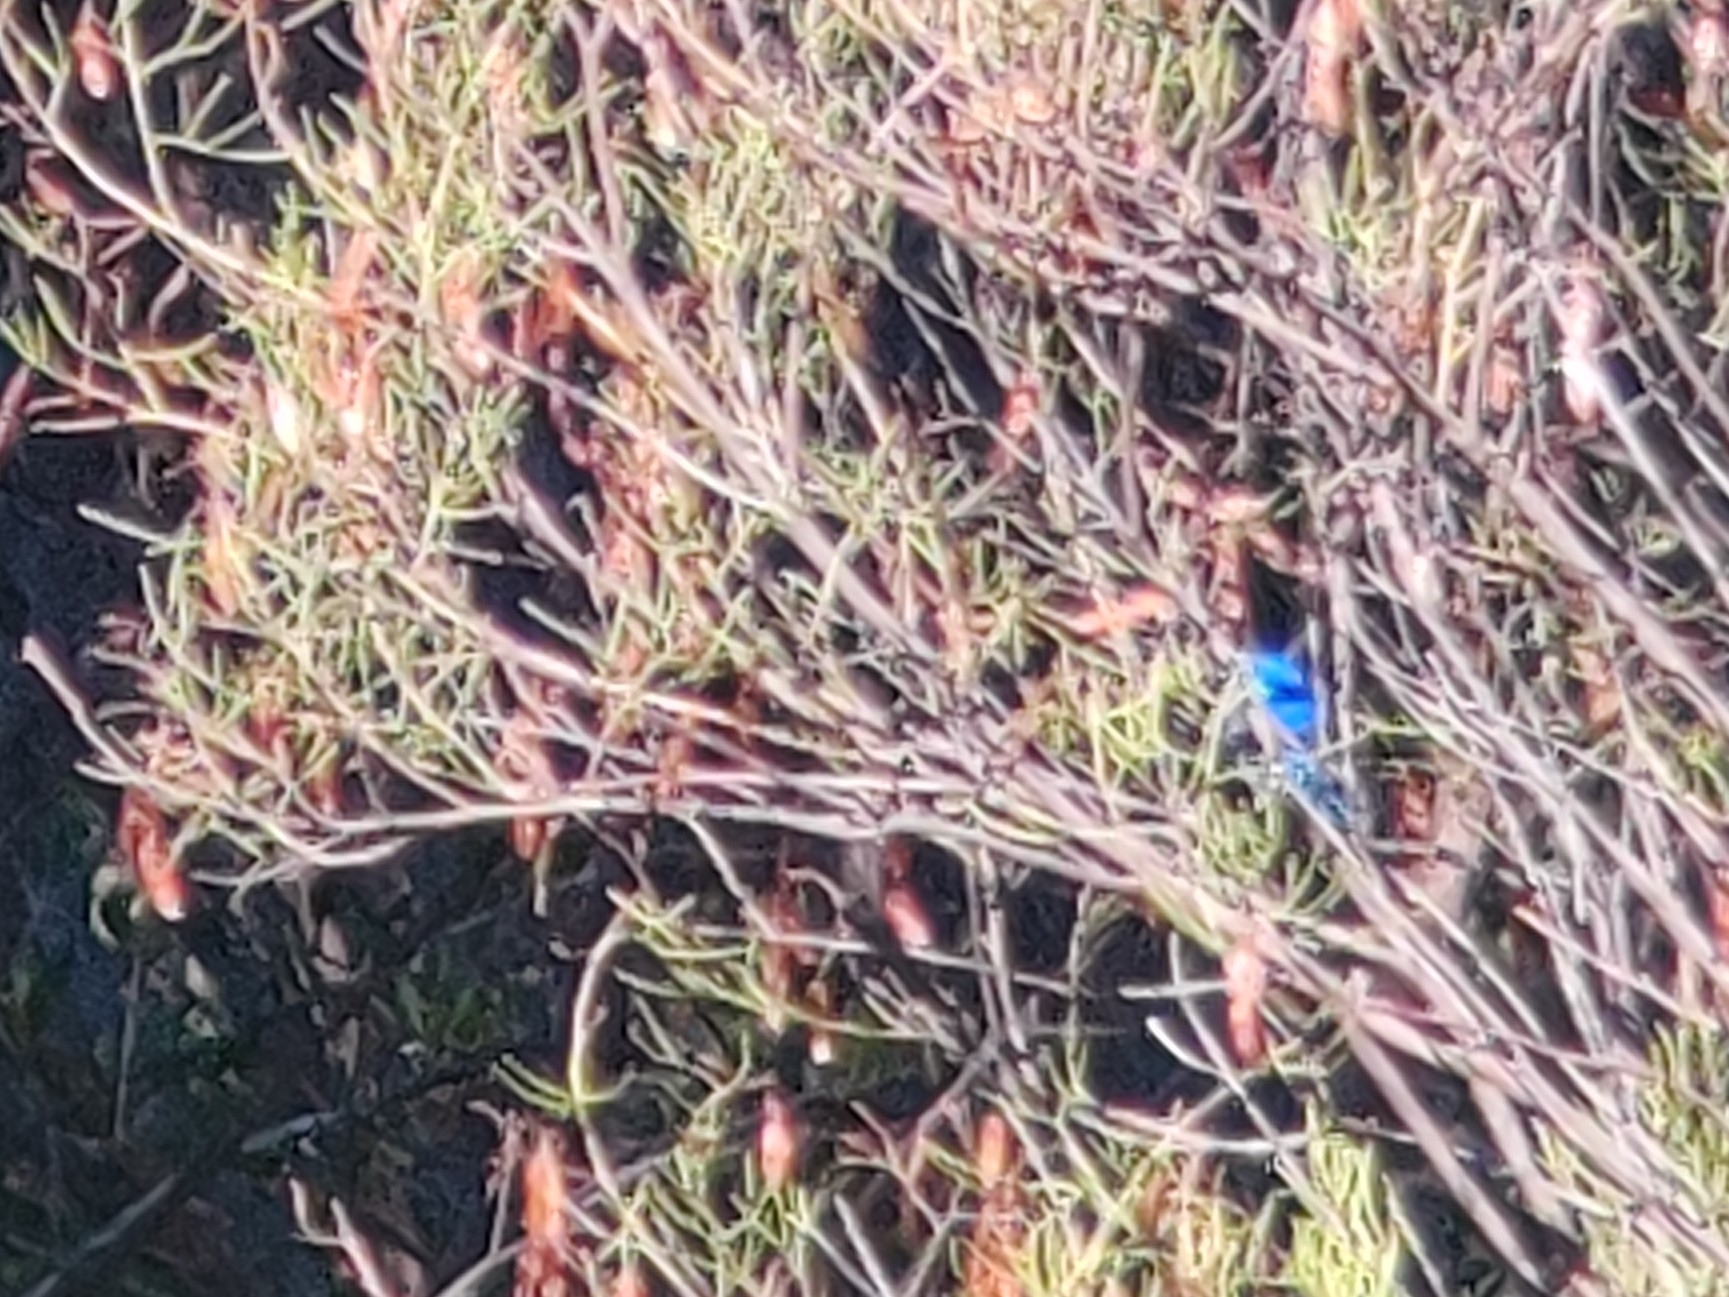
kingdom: Animalia
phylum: Chordata
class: Aves
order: Passeriformes
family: Maluridae
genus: Malurus
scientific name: Malurus splendens
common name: Splendid fairywren
